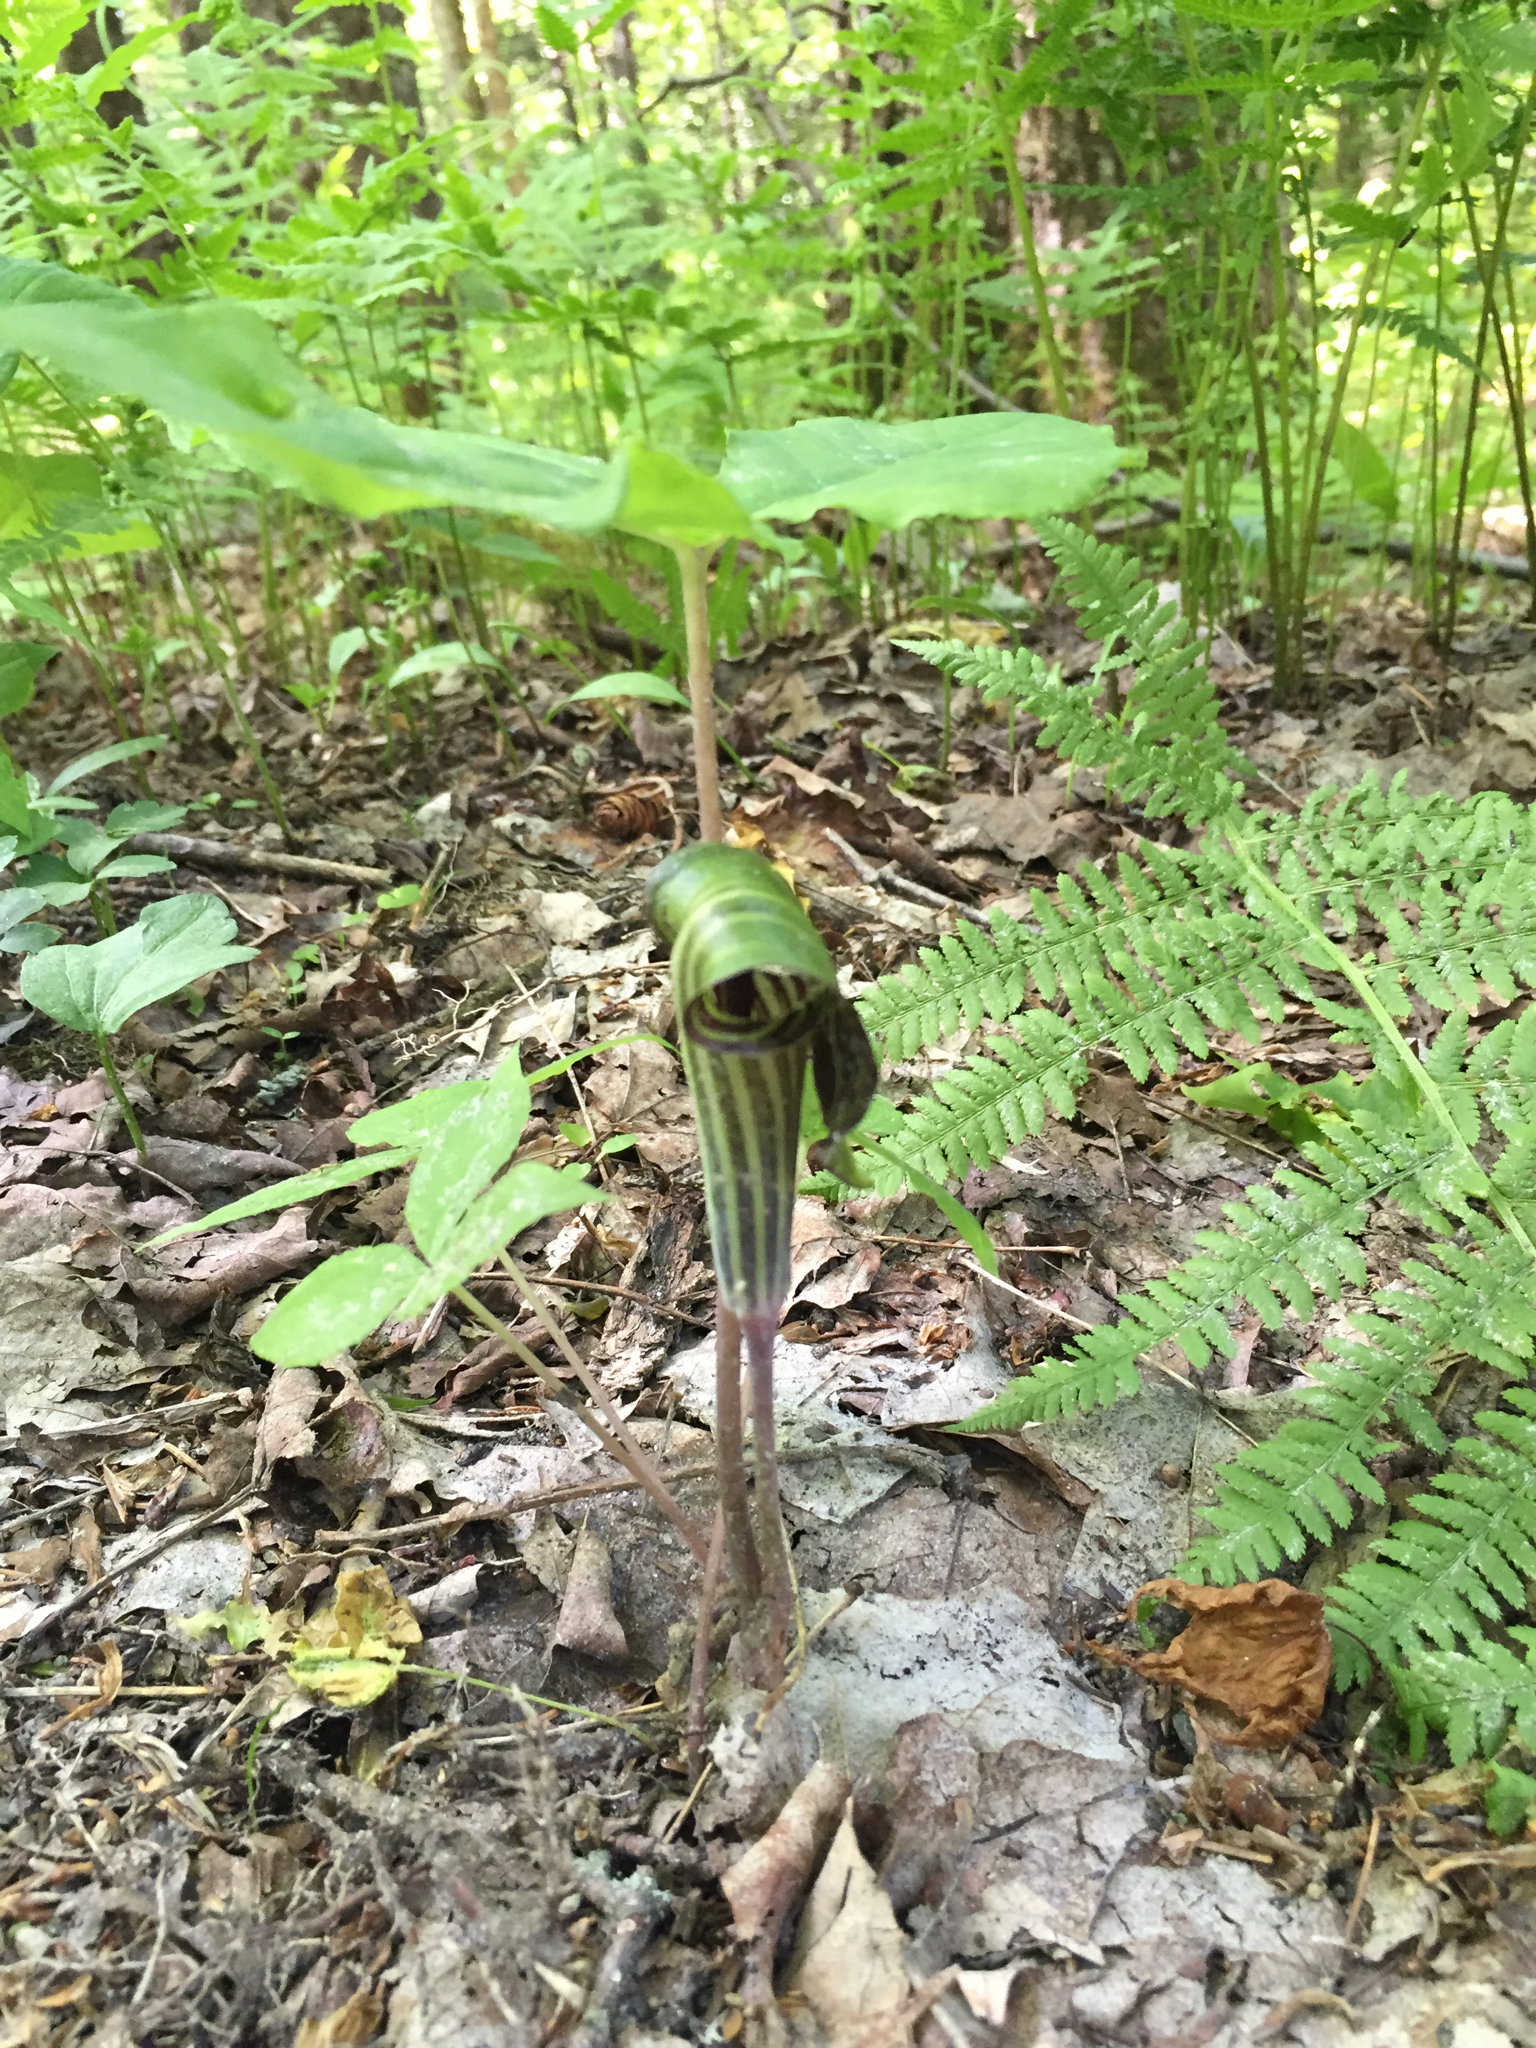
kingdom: Plantae
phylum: Tracheophyta
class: Liliopsida
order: Alismatales
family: Araceae
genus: Arisaema
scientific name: Arisaema triphyllum
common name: Jack-in-the-pulpit
